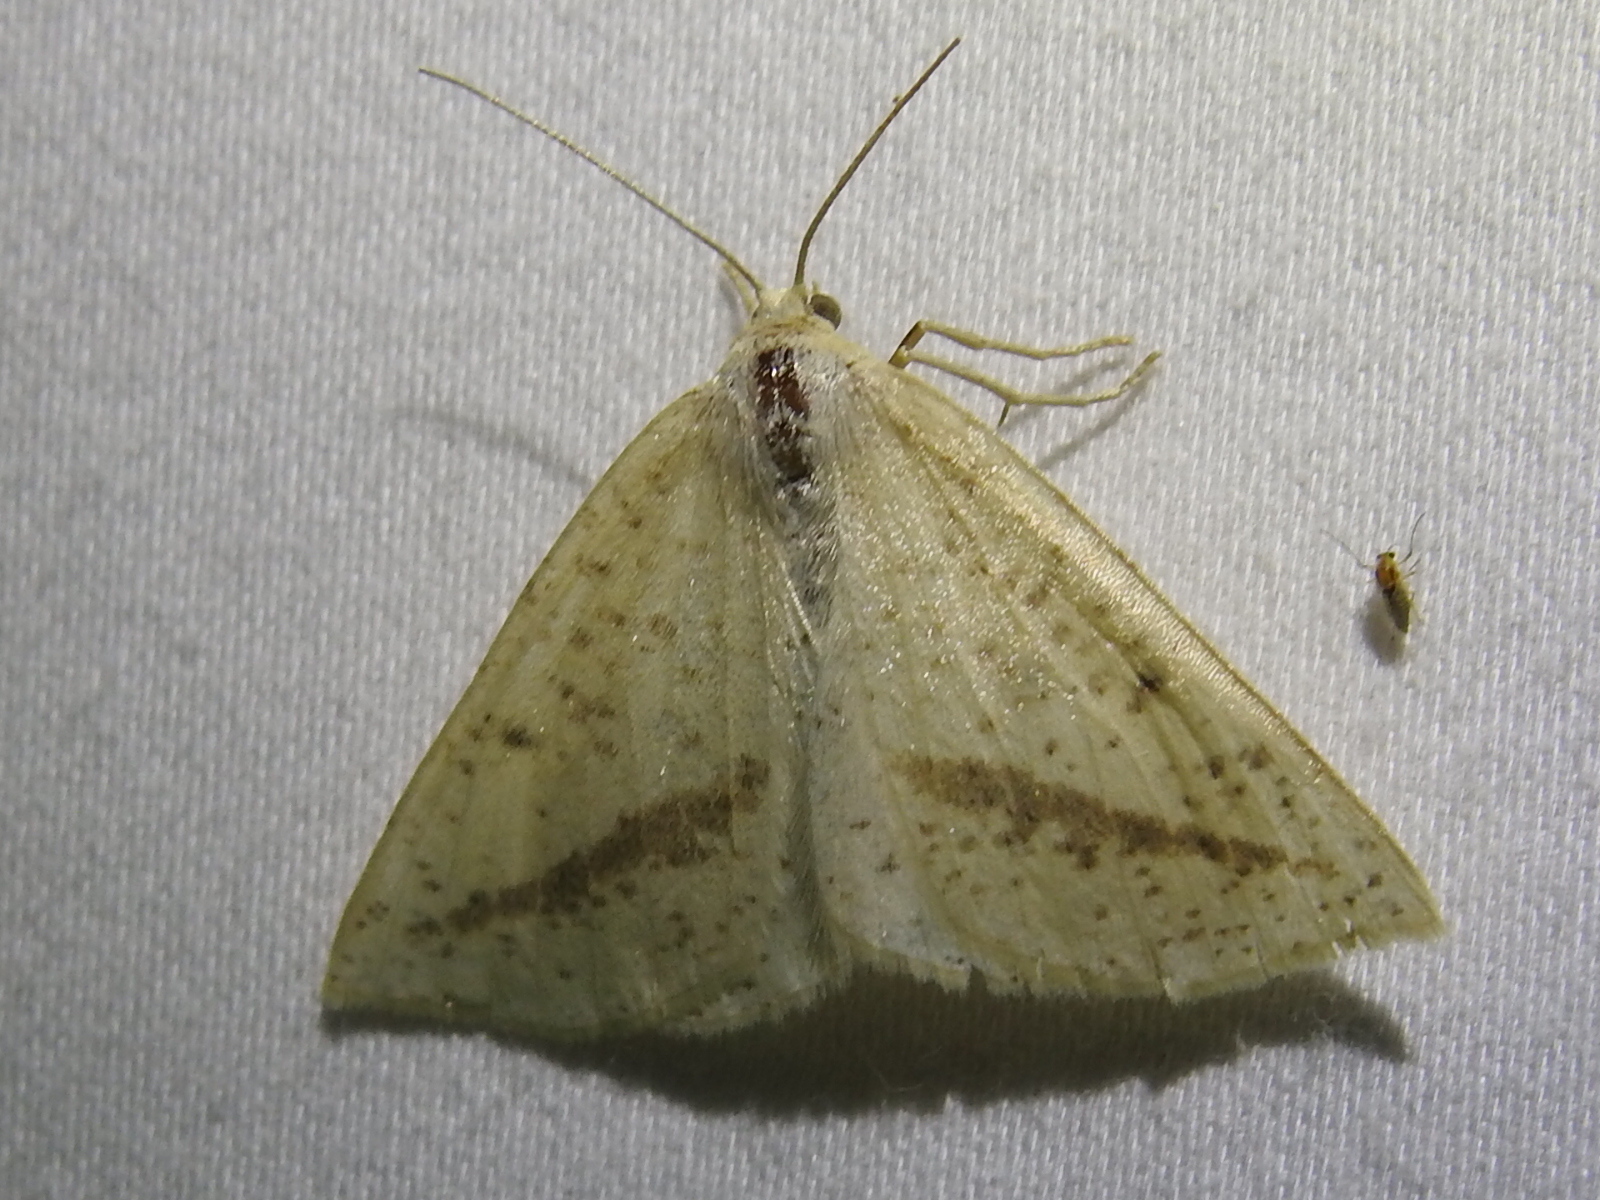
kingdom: Animalia
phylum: Arthropoda
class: Insecta
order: Lepidoptera
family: Geometridae
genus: Lychnosea
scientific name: Lychnosea intermicata
